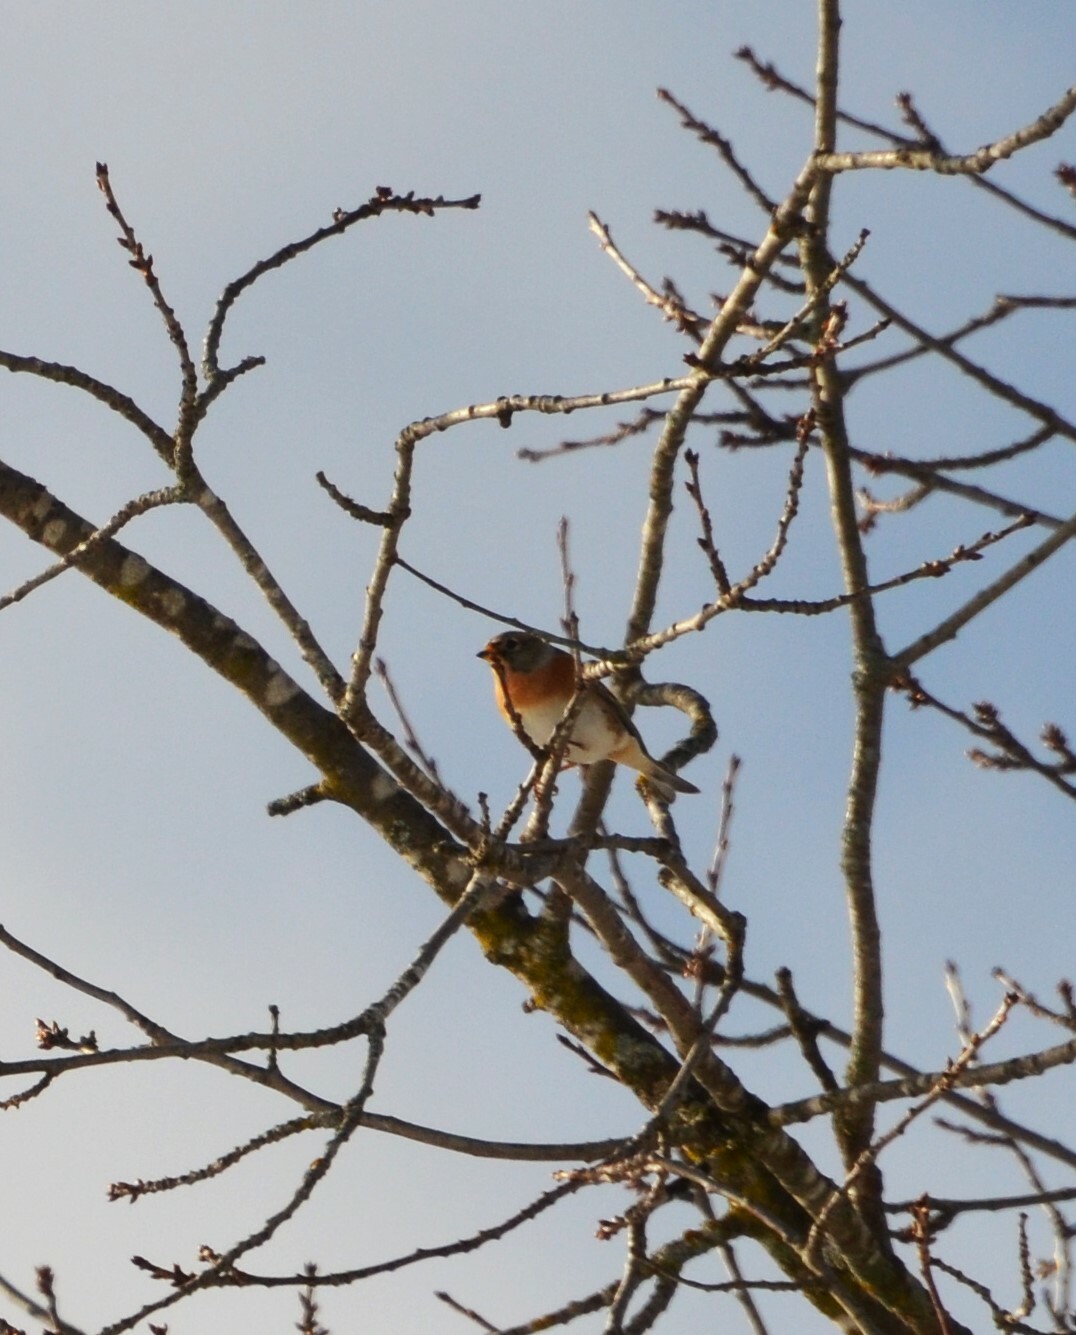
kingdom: Animalia
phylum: Chordata
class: Aves
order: Passeriformes
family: Fringillidae
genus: Fringilla
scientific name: Fringilla montifringilla
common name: Brambling
